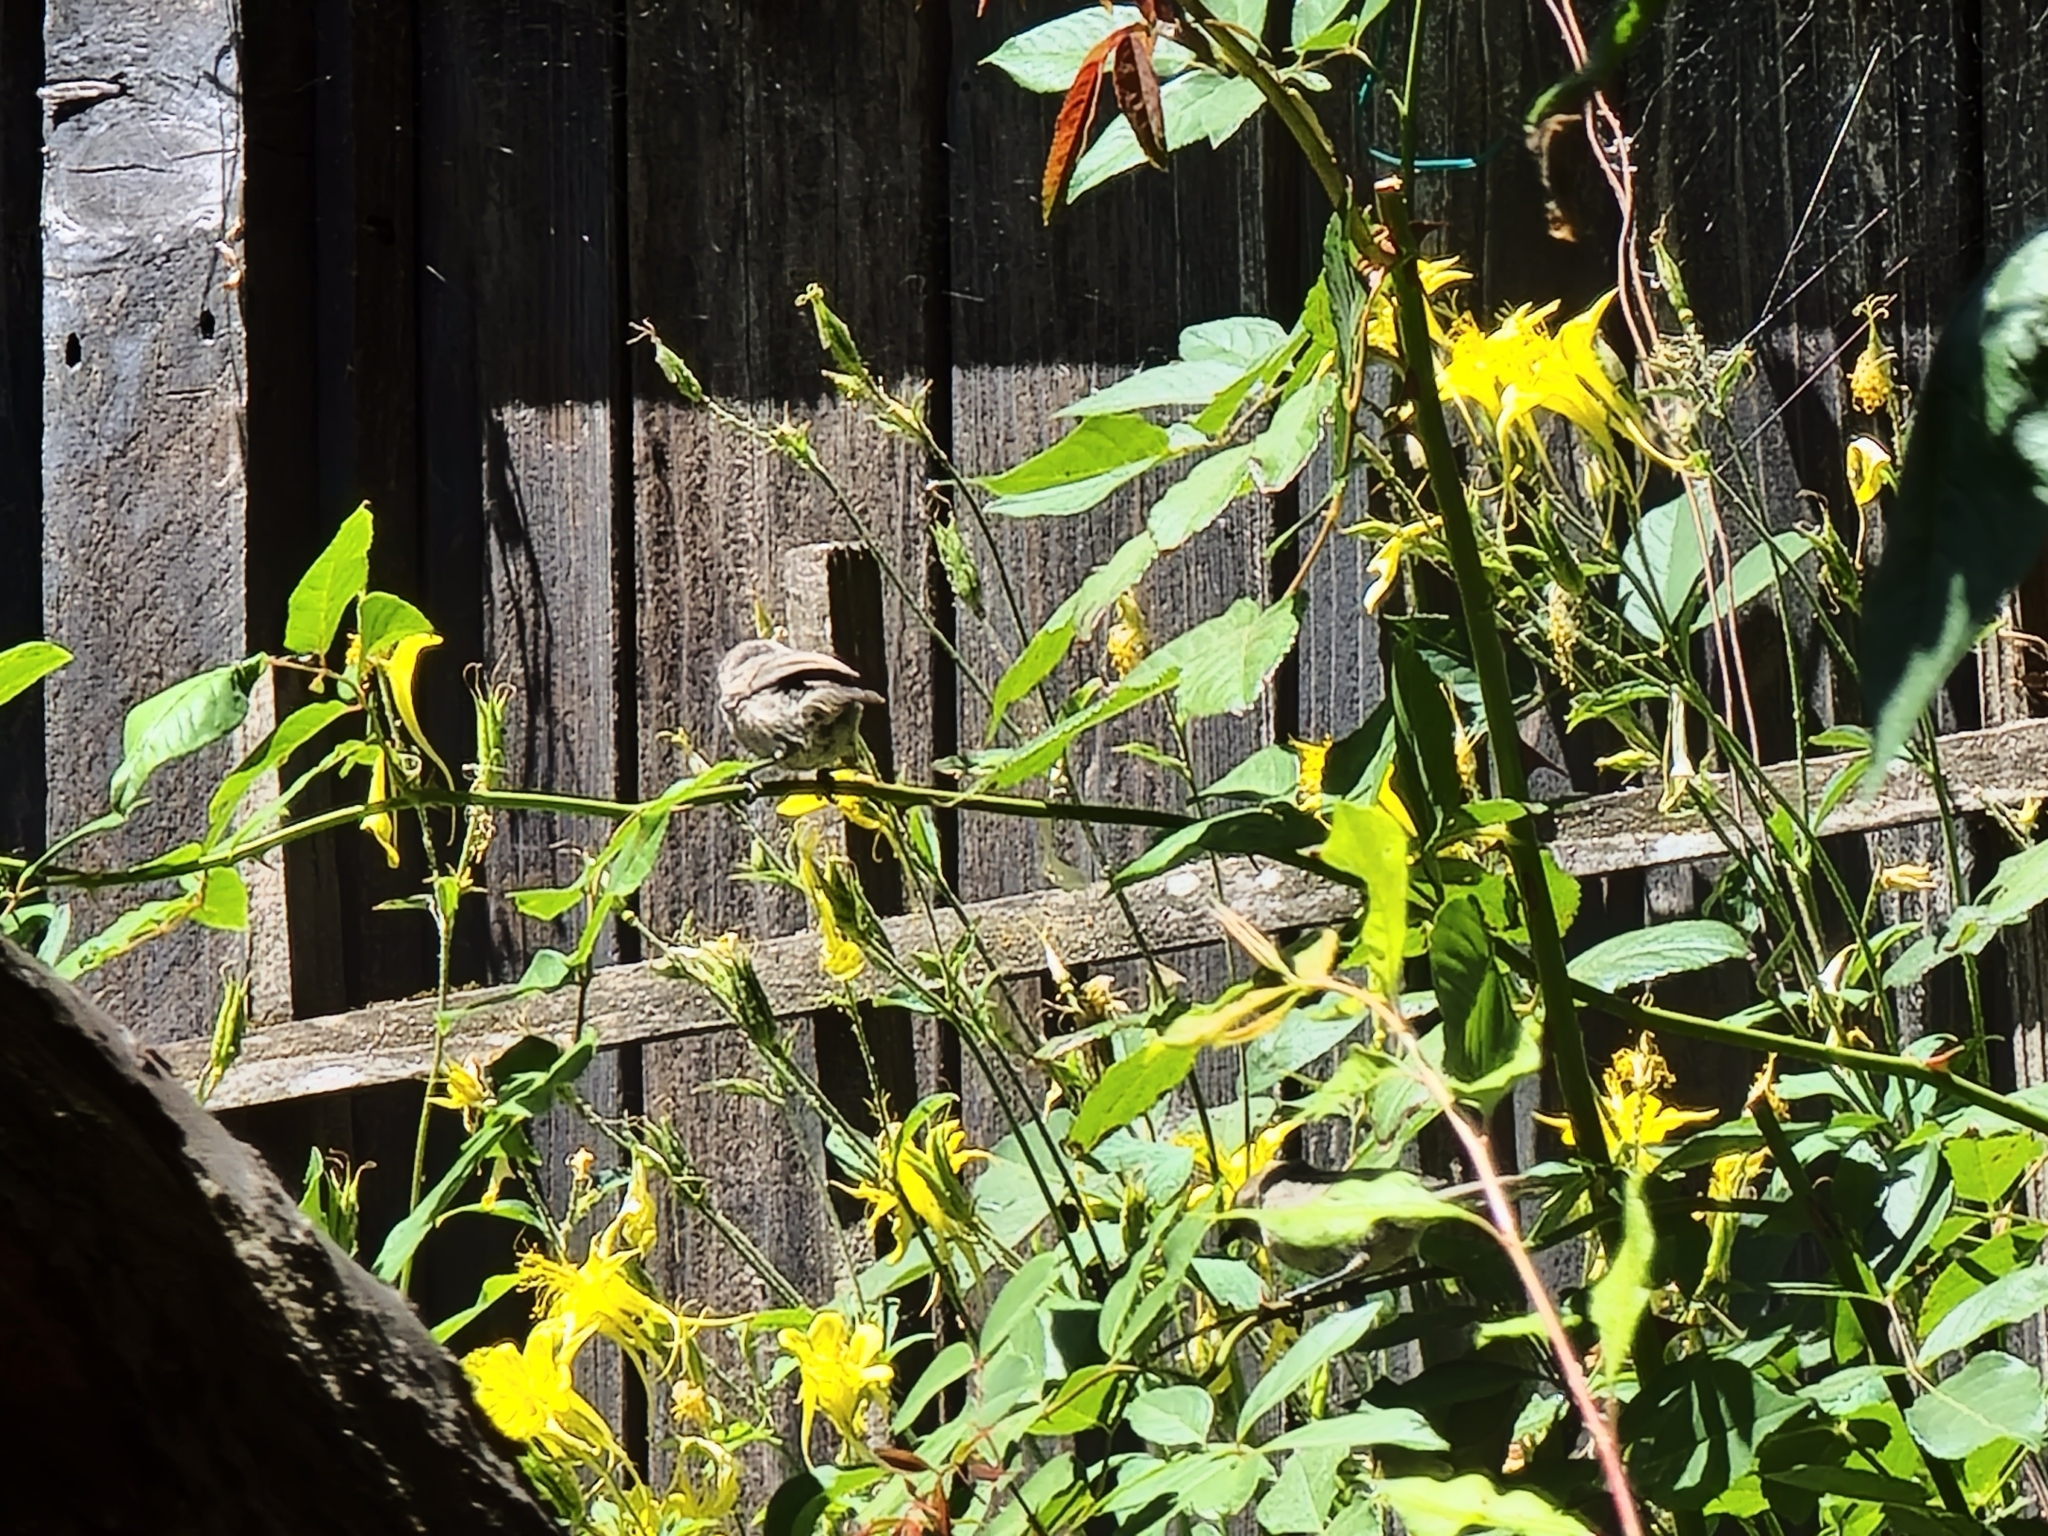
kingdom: Animalia
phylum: Chordata
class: Aves
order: Passeriformes
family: Aegithalidae
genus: Psaltriparus
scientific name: Psaltriparus minimus
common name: American bushtit
